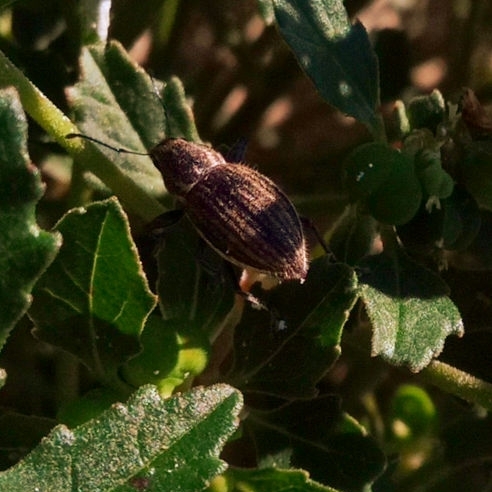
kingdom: Animalia
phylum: Arthropoda
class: Insecta
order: Coleoptera
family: Curculionidae
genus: Naupactus
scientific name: Naupactus leucoloma
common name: Whitefringed beetle
